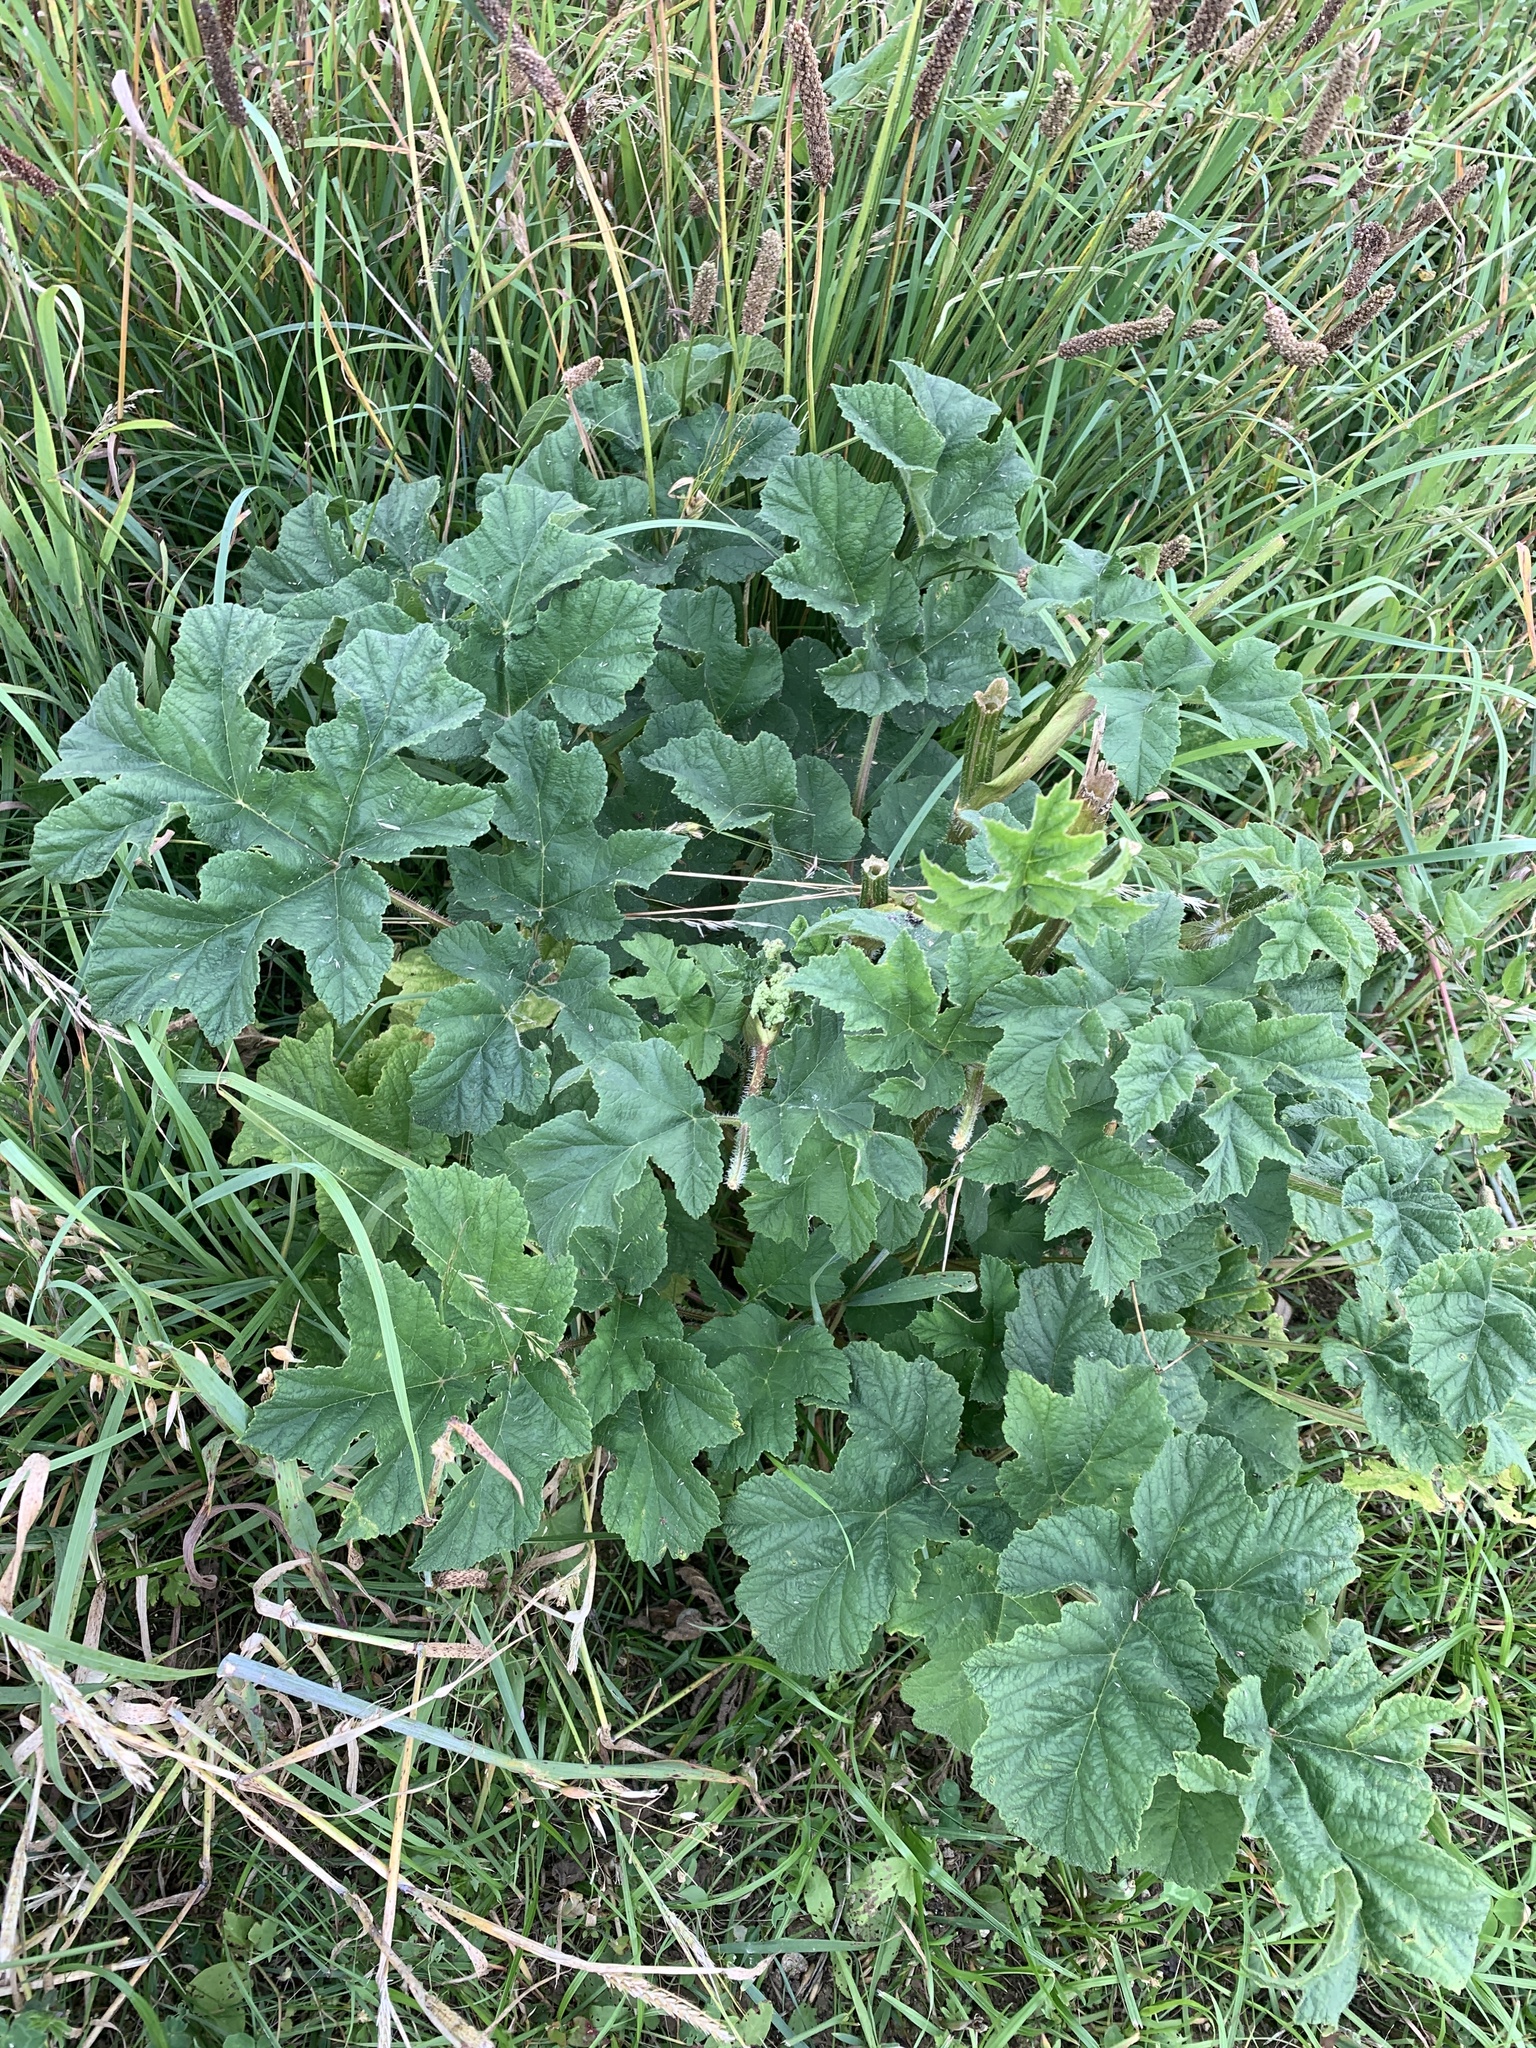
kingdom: Plantae
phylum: Tracheophyta
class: Magnoliopsida
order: Apiales
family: Apiaceae
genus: Heracleum
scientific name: Heracleum sphondylium
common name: Hogweed
